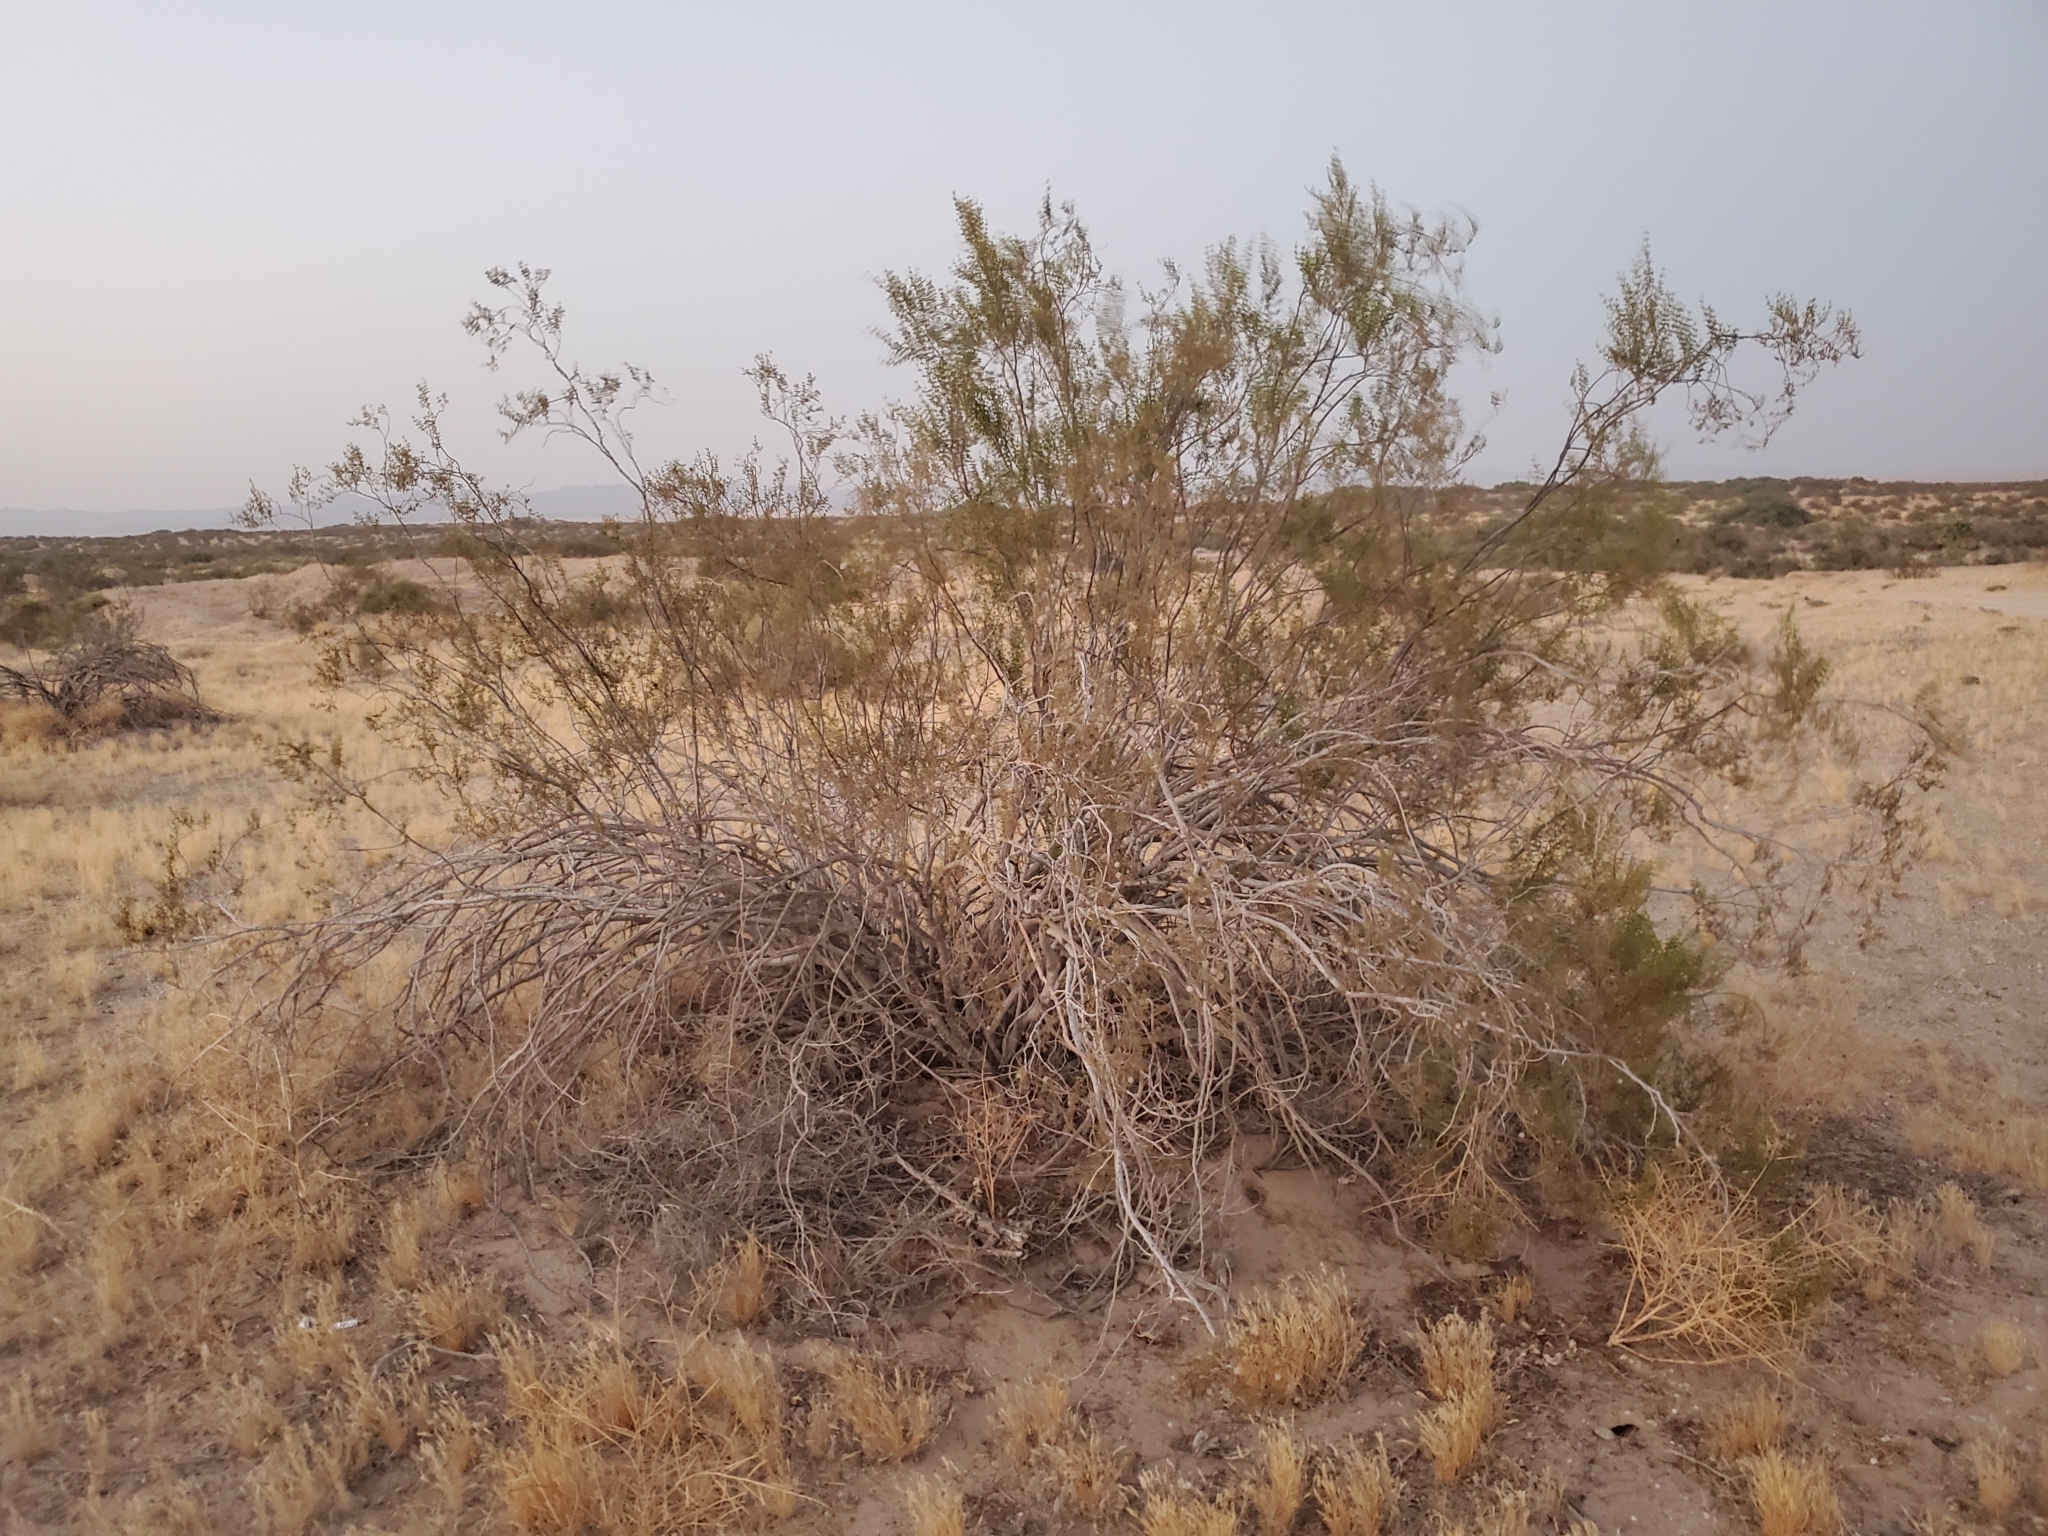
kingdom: Plantae
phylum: Tracheophyta
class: Magnoliopsida
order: Zygophyllales
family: Zygophyllaceae
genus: Larrea
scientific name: Larrea tridentata
